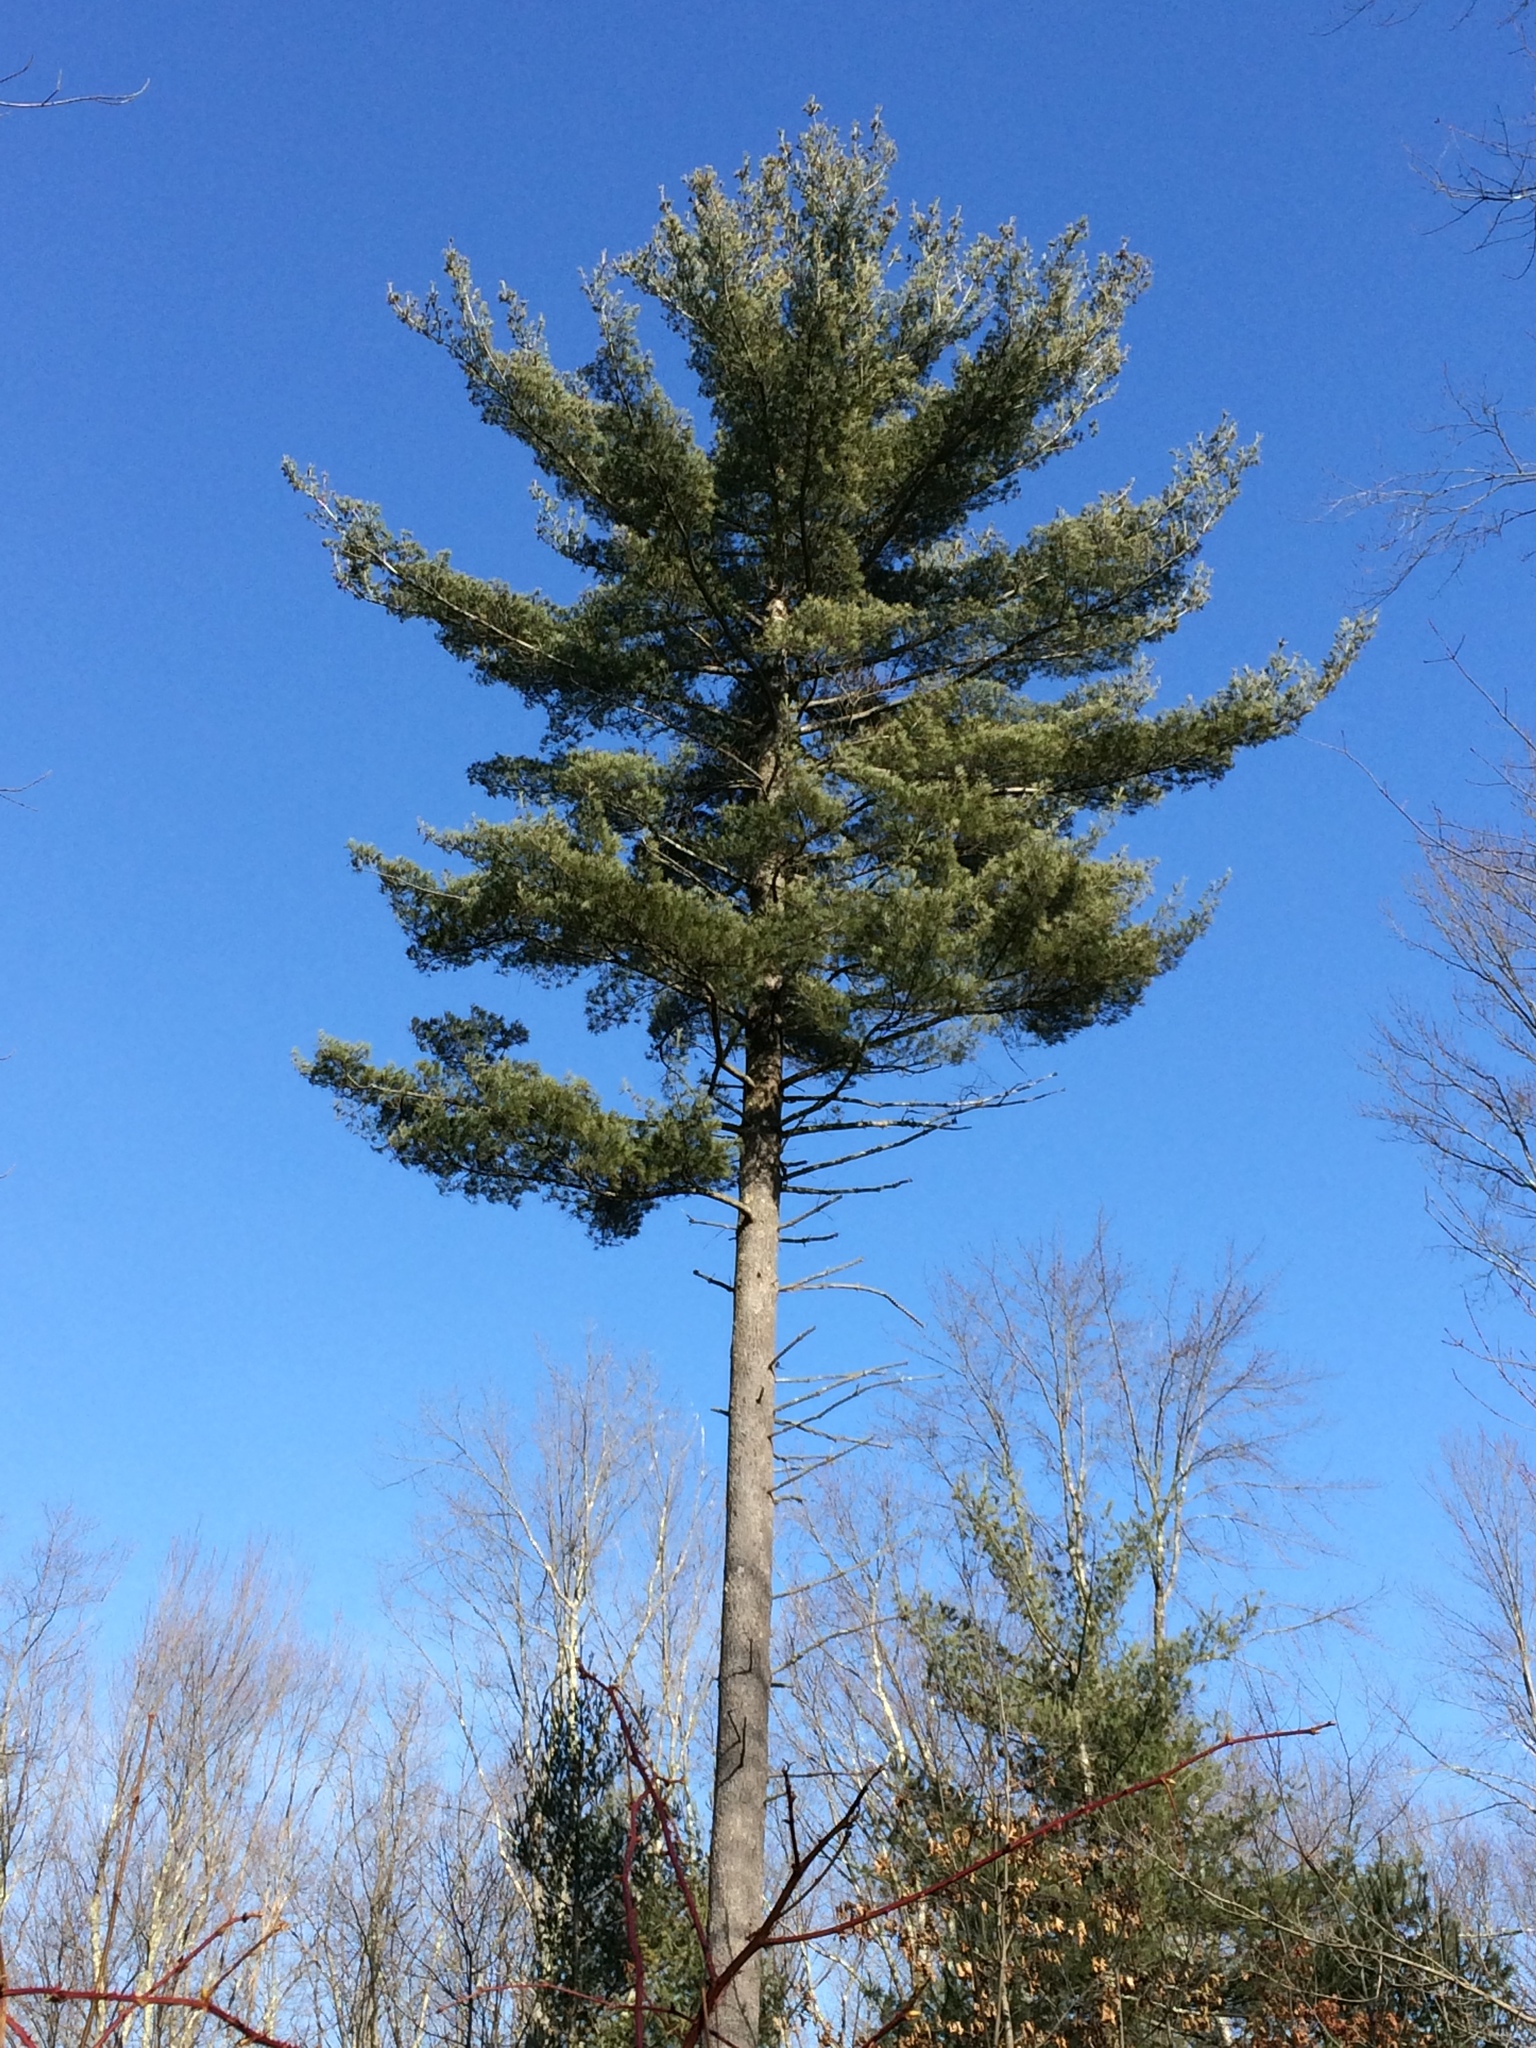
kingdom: Plantae
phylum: Tracheophyta
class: Pinopsida
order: Pinales
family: Pinaceae
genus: Pinus
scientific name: Pinus strobus
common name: Weymouth pine
